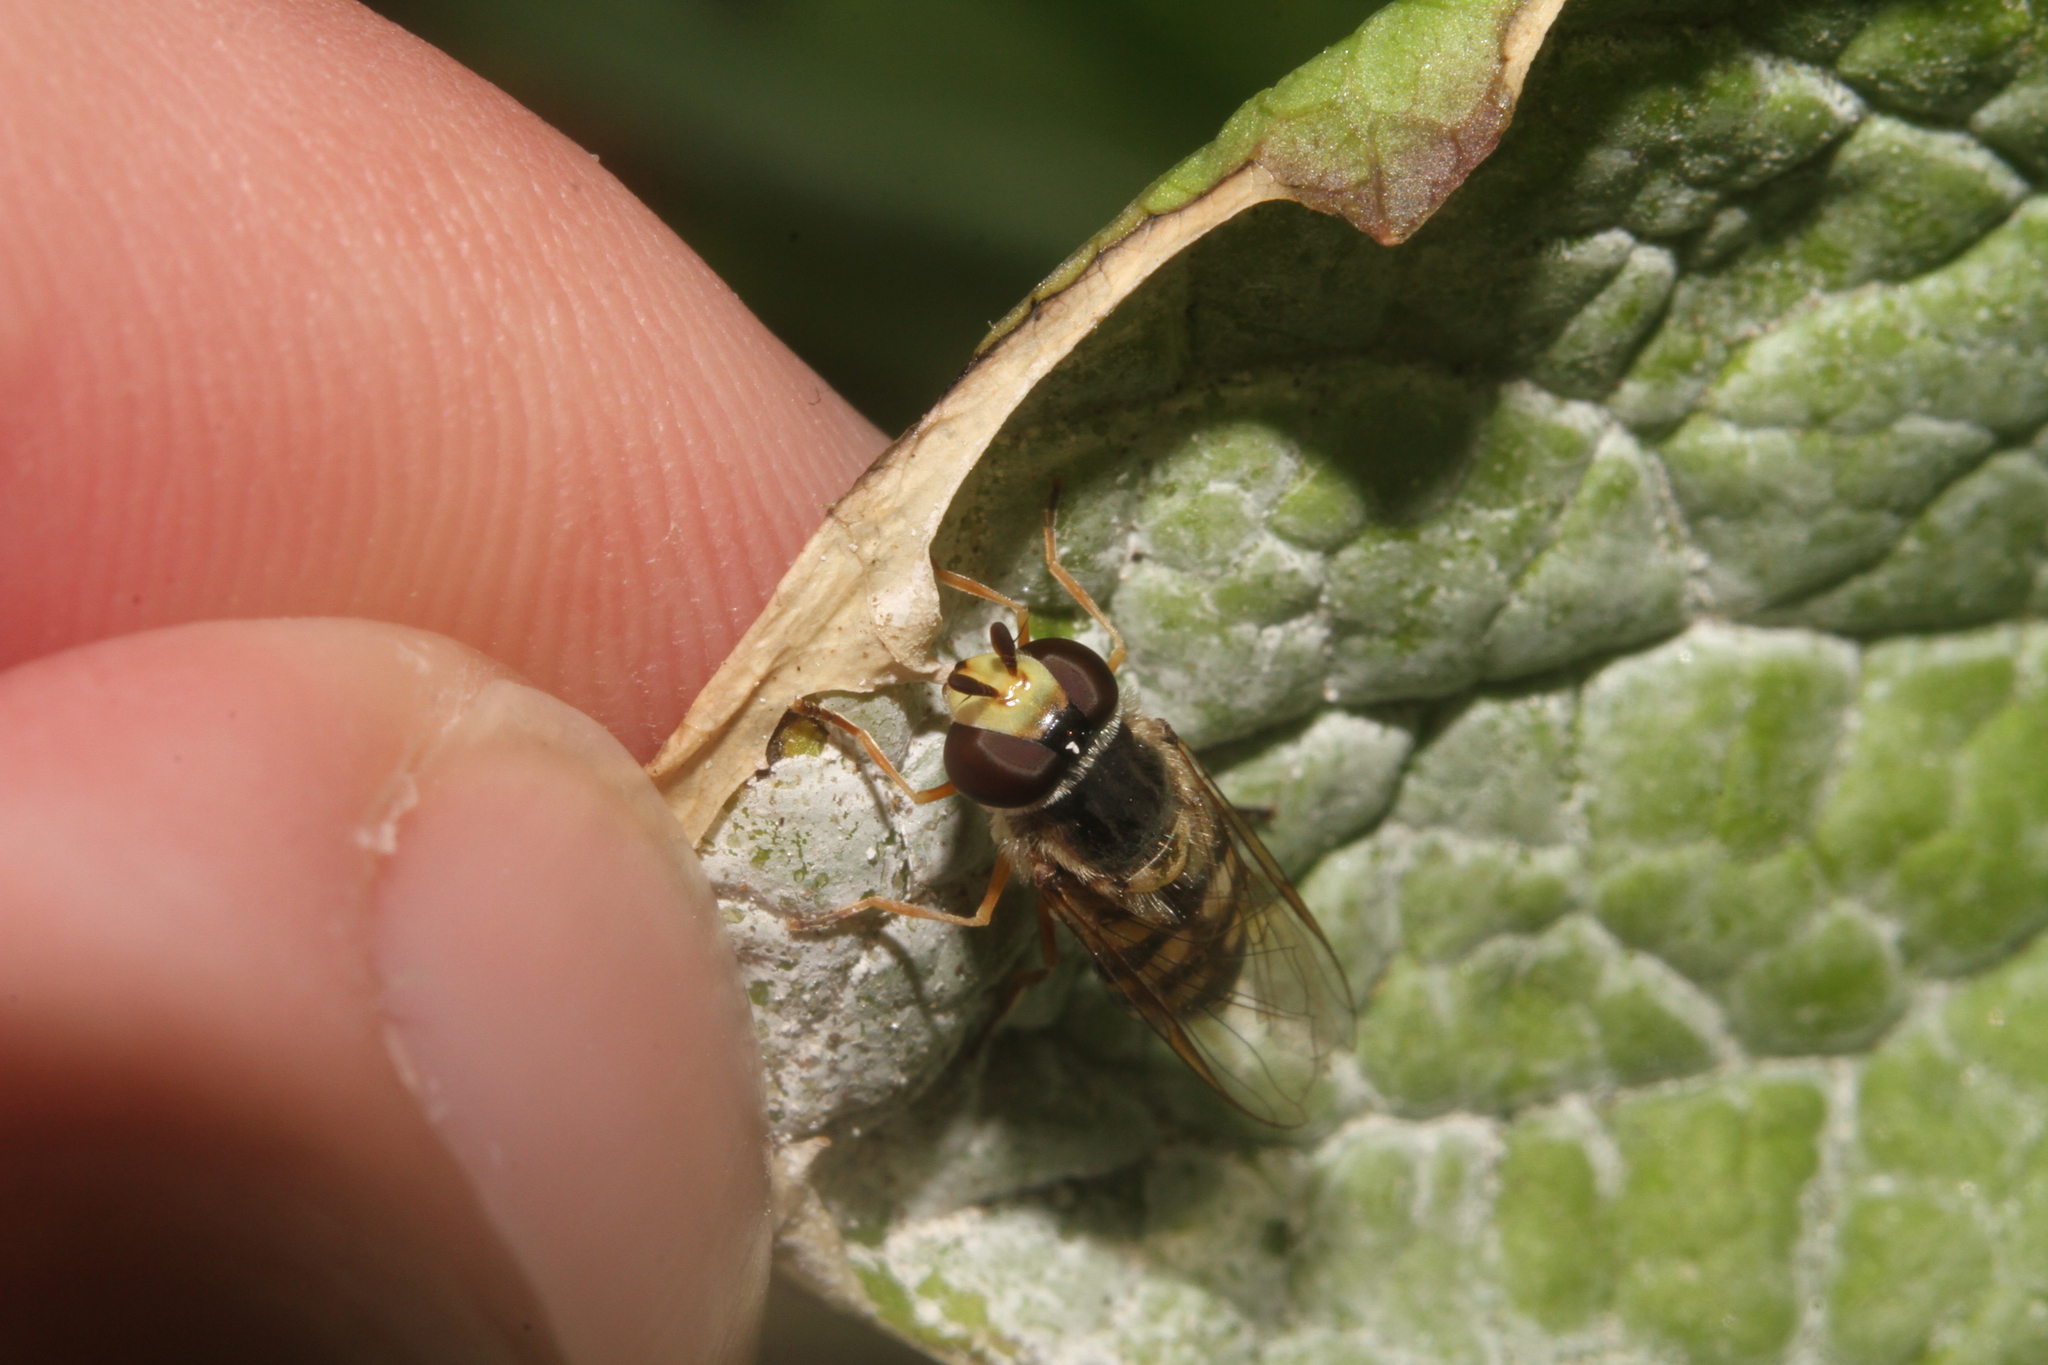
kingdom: Animalia
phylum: Arthropoda
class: Insecta
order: Diptera
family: Syrphidae
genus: Eupeodes
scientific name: Eupeodes corollae
